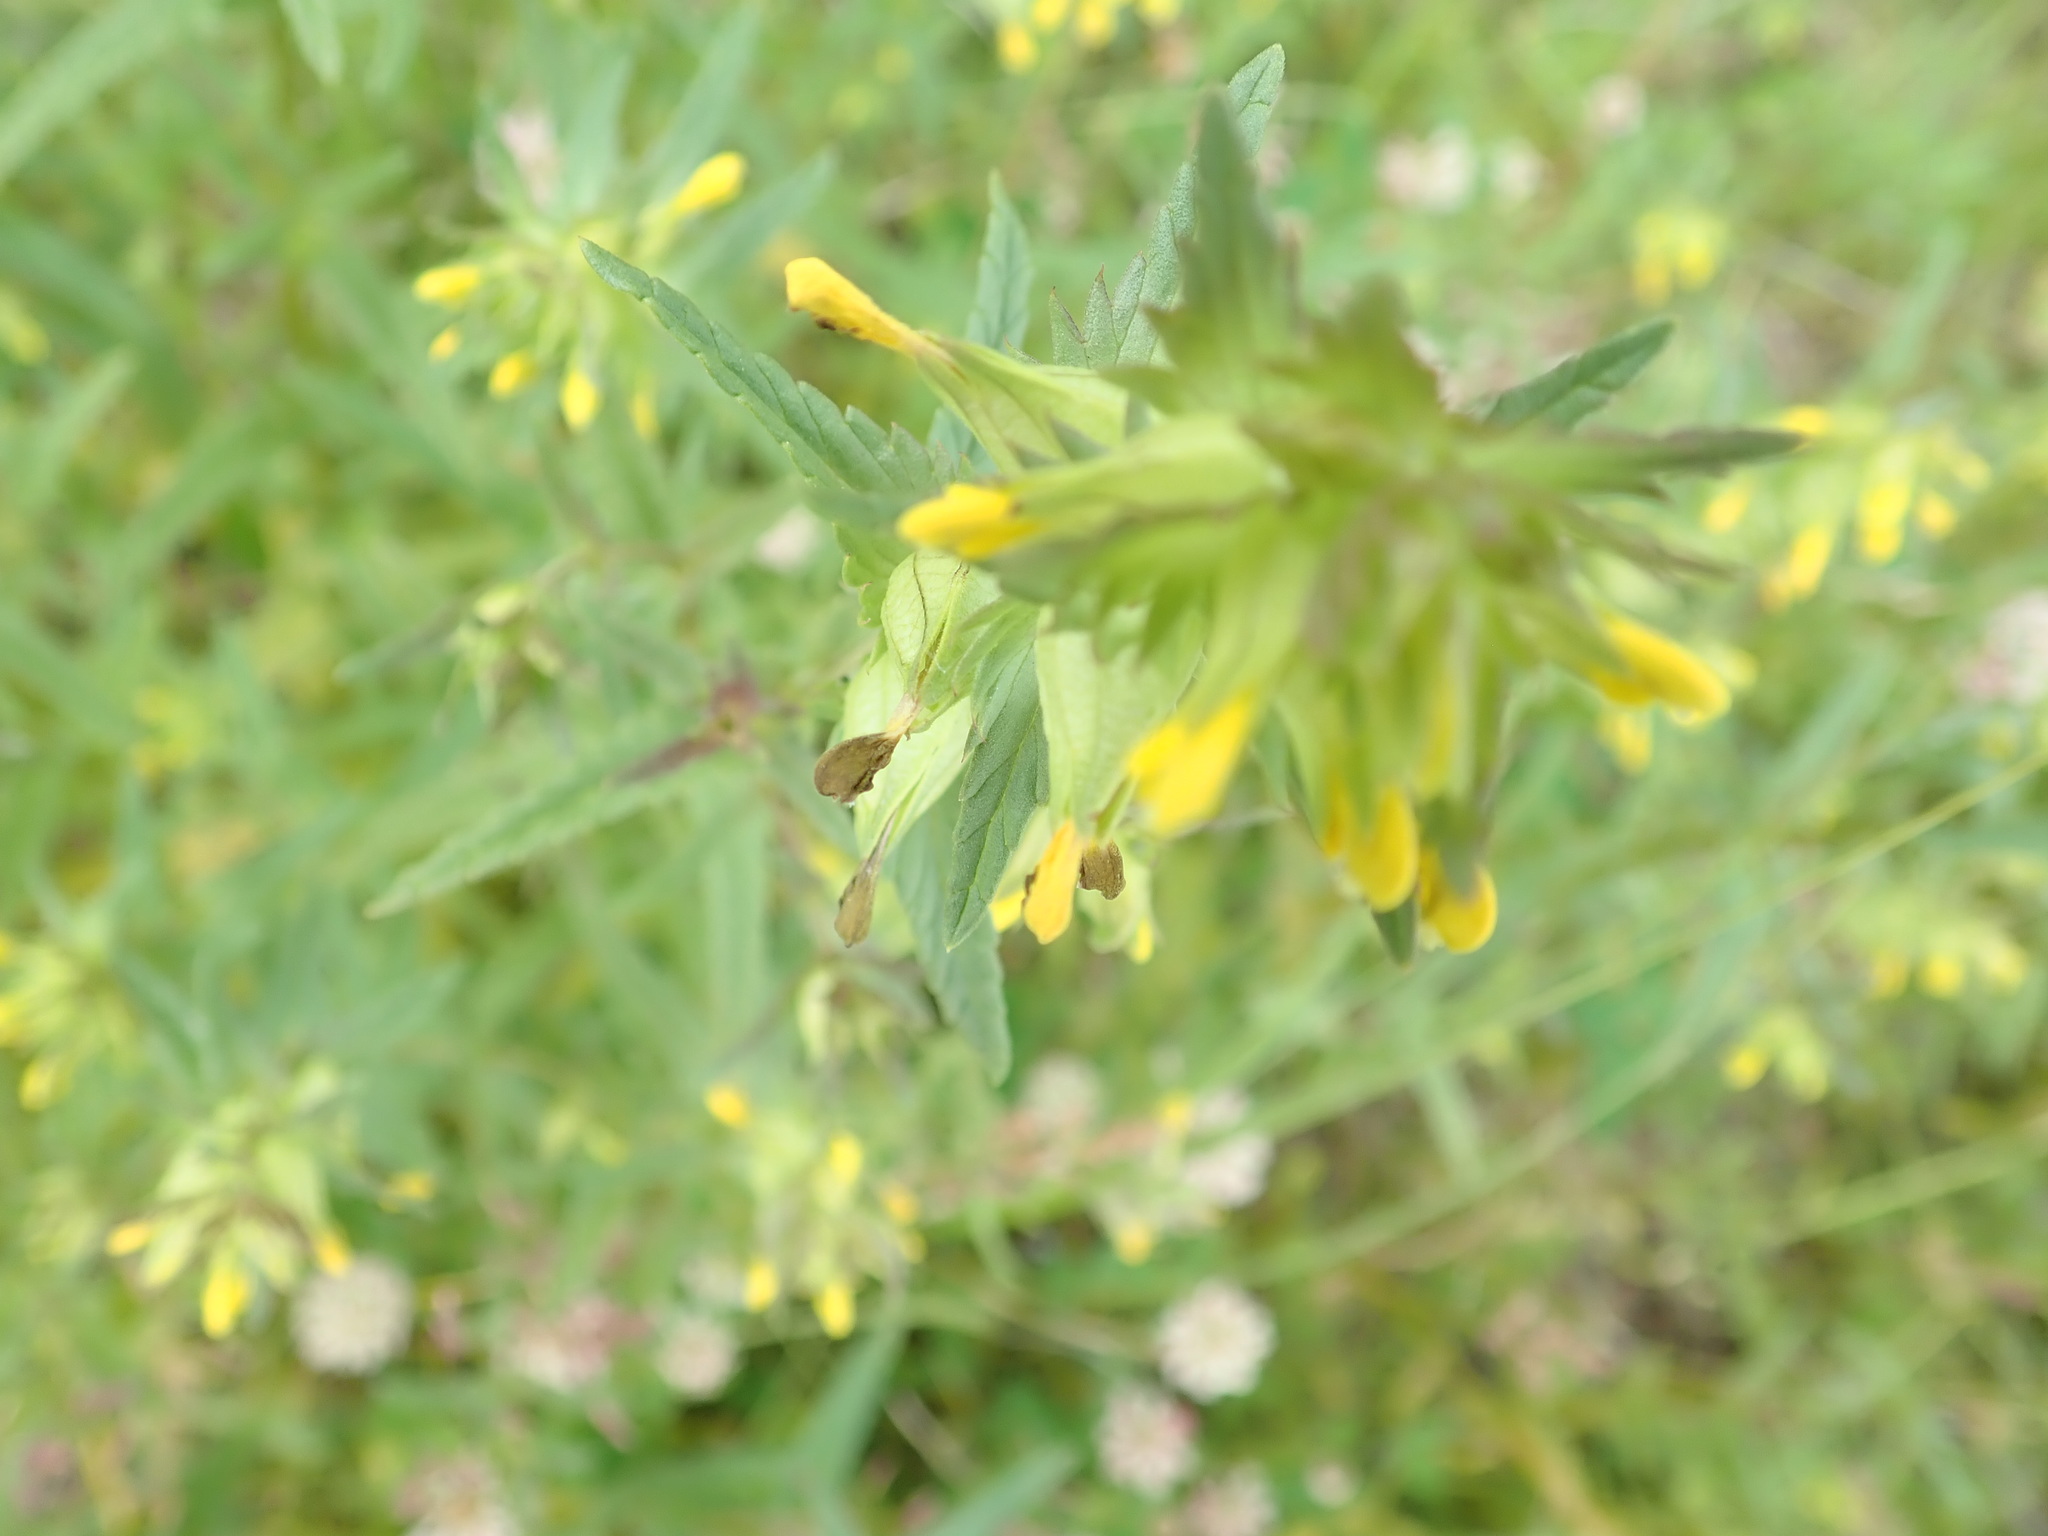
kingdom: Plantae
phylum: Tracheophyta
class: Magnoliopsida
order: Lamiales
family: Orobanchaceae
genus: Rhinanthus
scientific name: Rhinanthus groenlandicus
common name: Little yellow rattle
